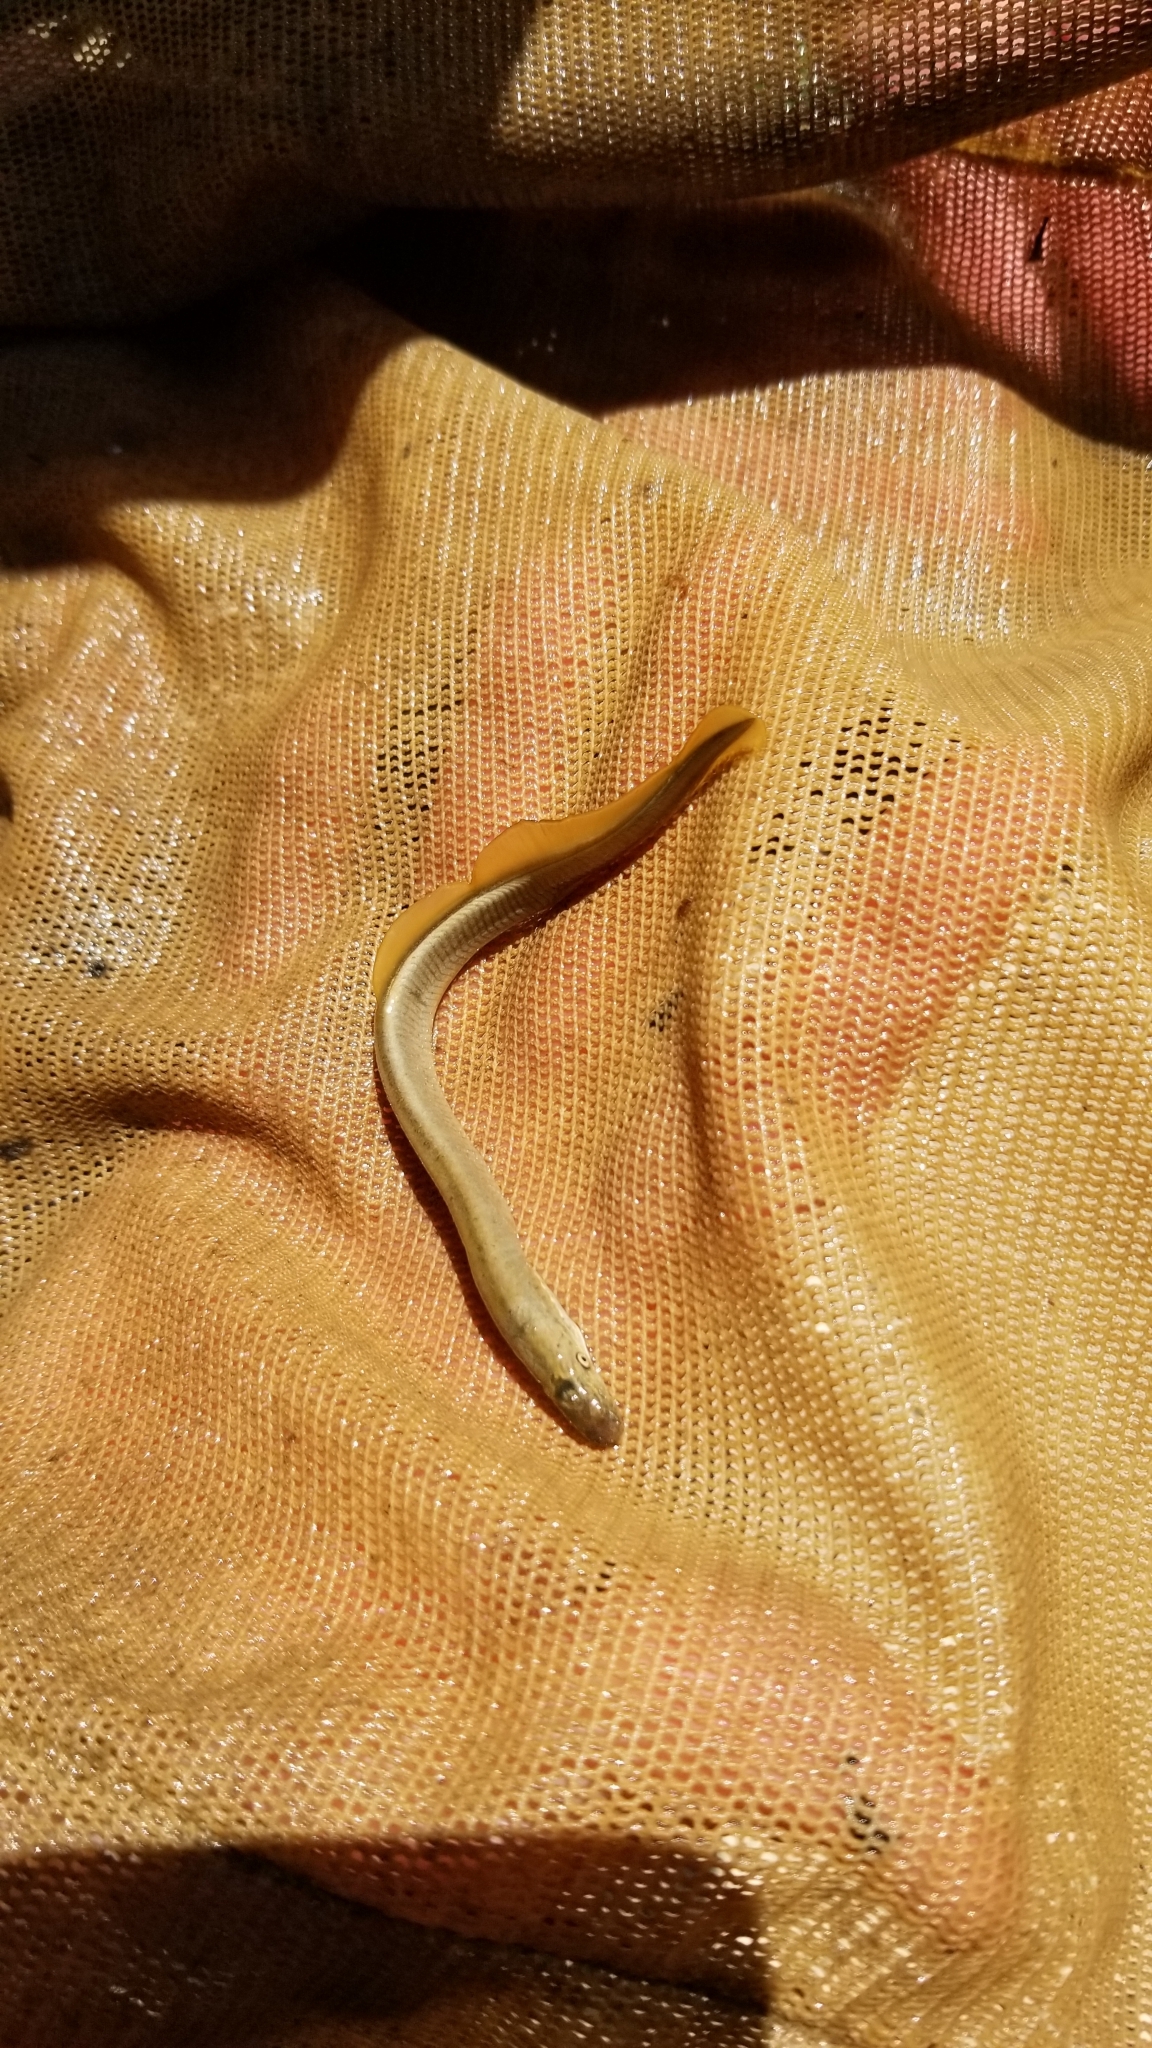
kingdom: Animalia
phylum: Chordata
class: Petromyzonti
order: Petromyzontiformes
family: Petromyzontidae
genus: Lampetra
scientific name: Lampetra aepyptera
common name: Least brook lamprey
